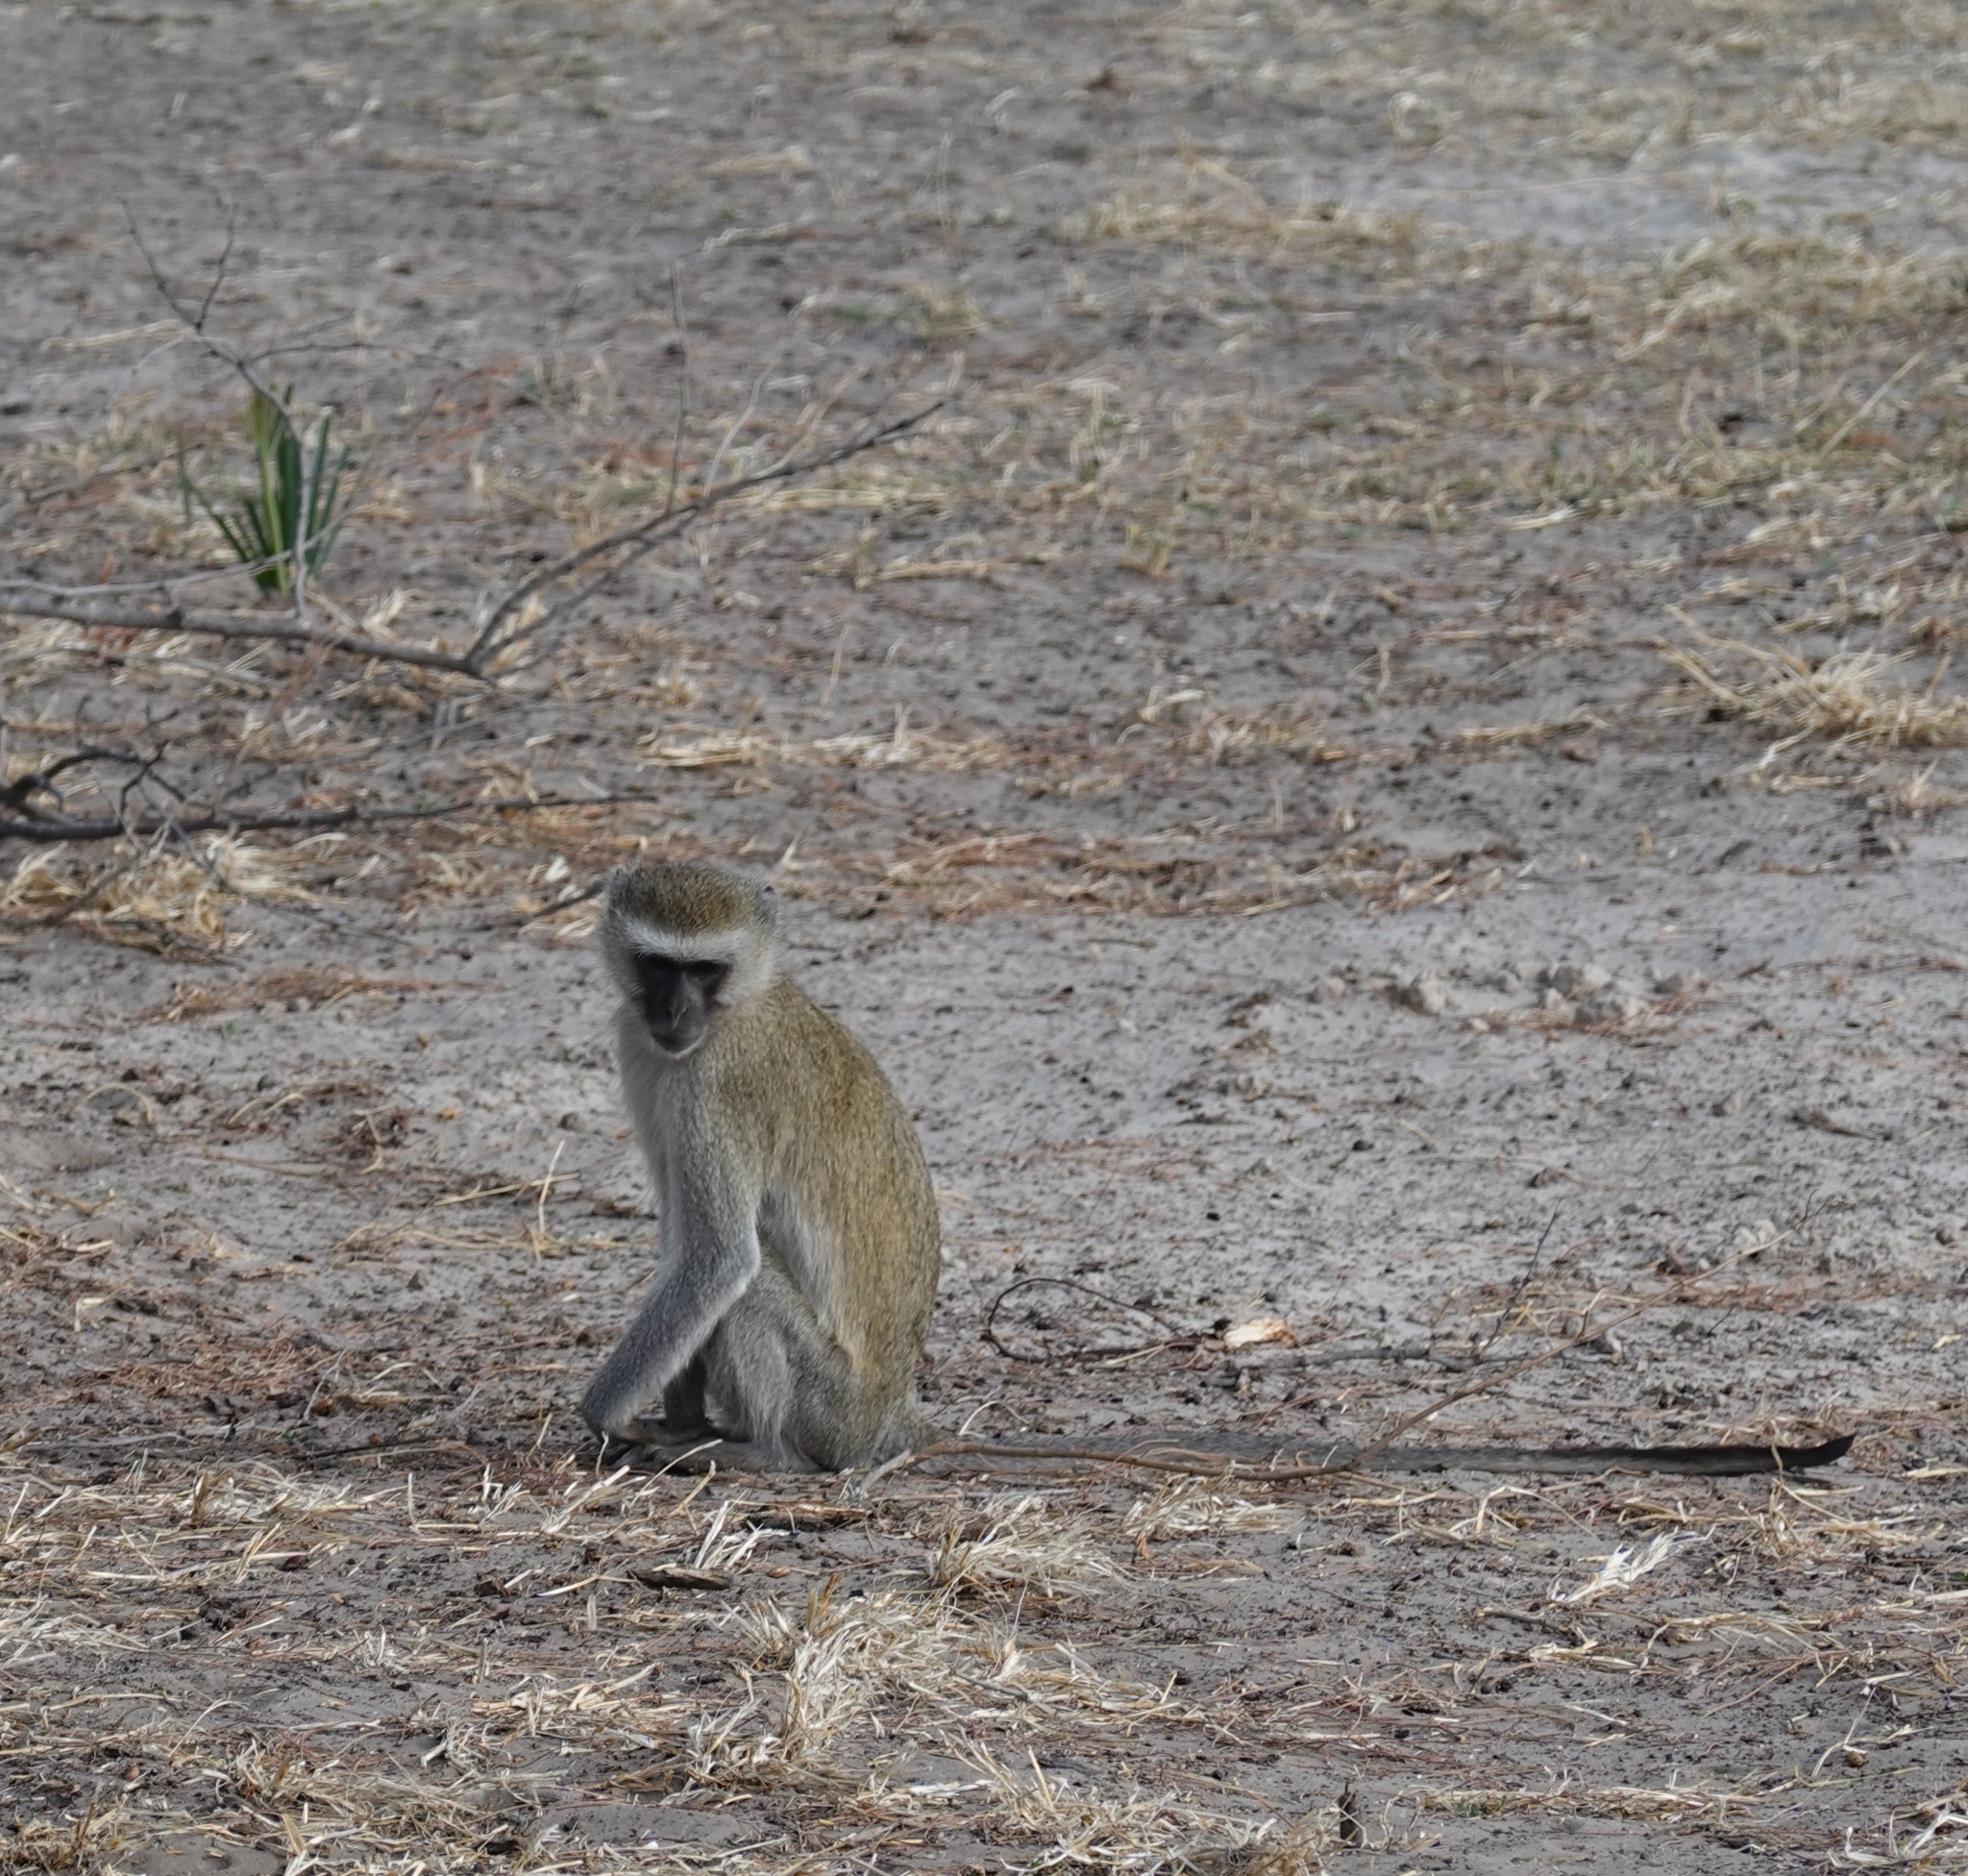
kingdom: Animalia
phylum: Chordata
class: Mammalia
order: Primates
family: Cercopithecidae
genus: Chlorocebus
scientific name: Chlorocebus pygerythrus
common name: Vervet monkey
